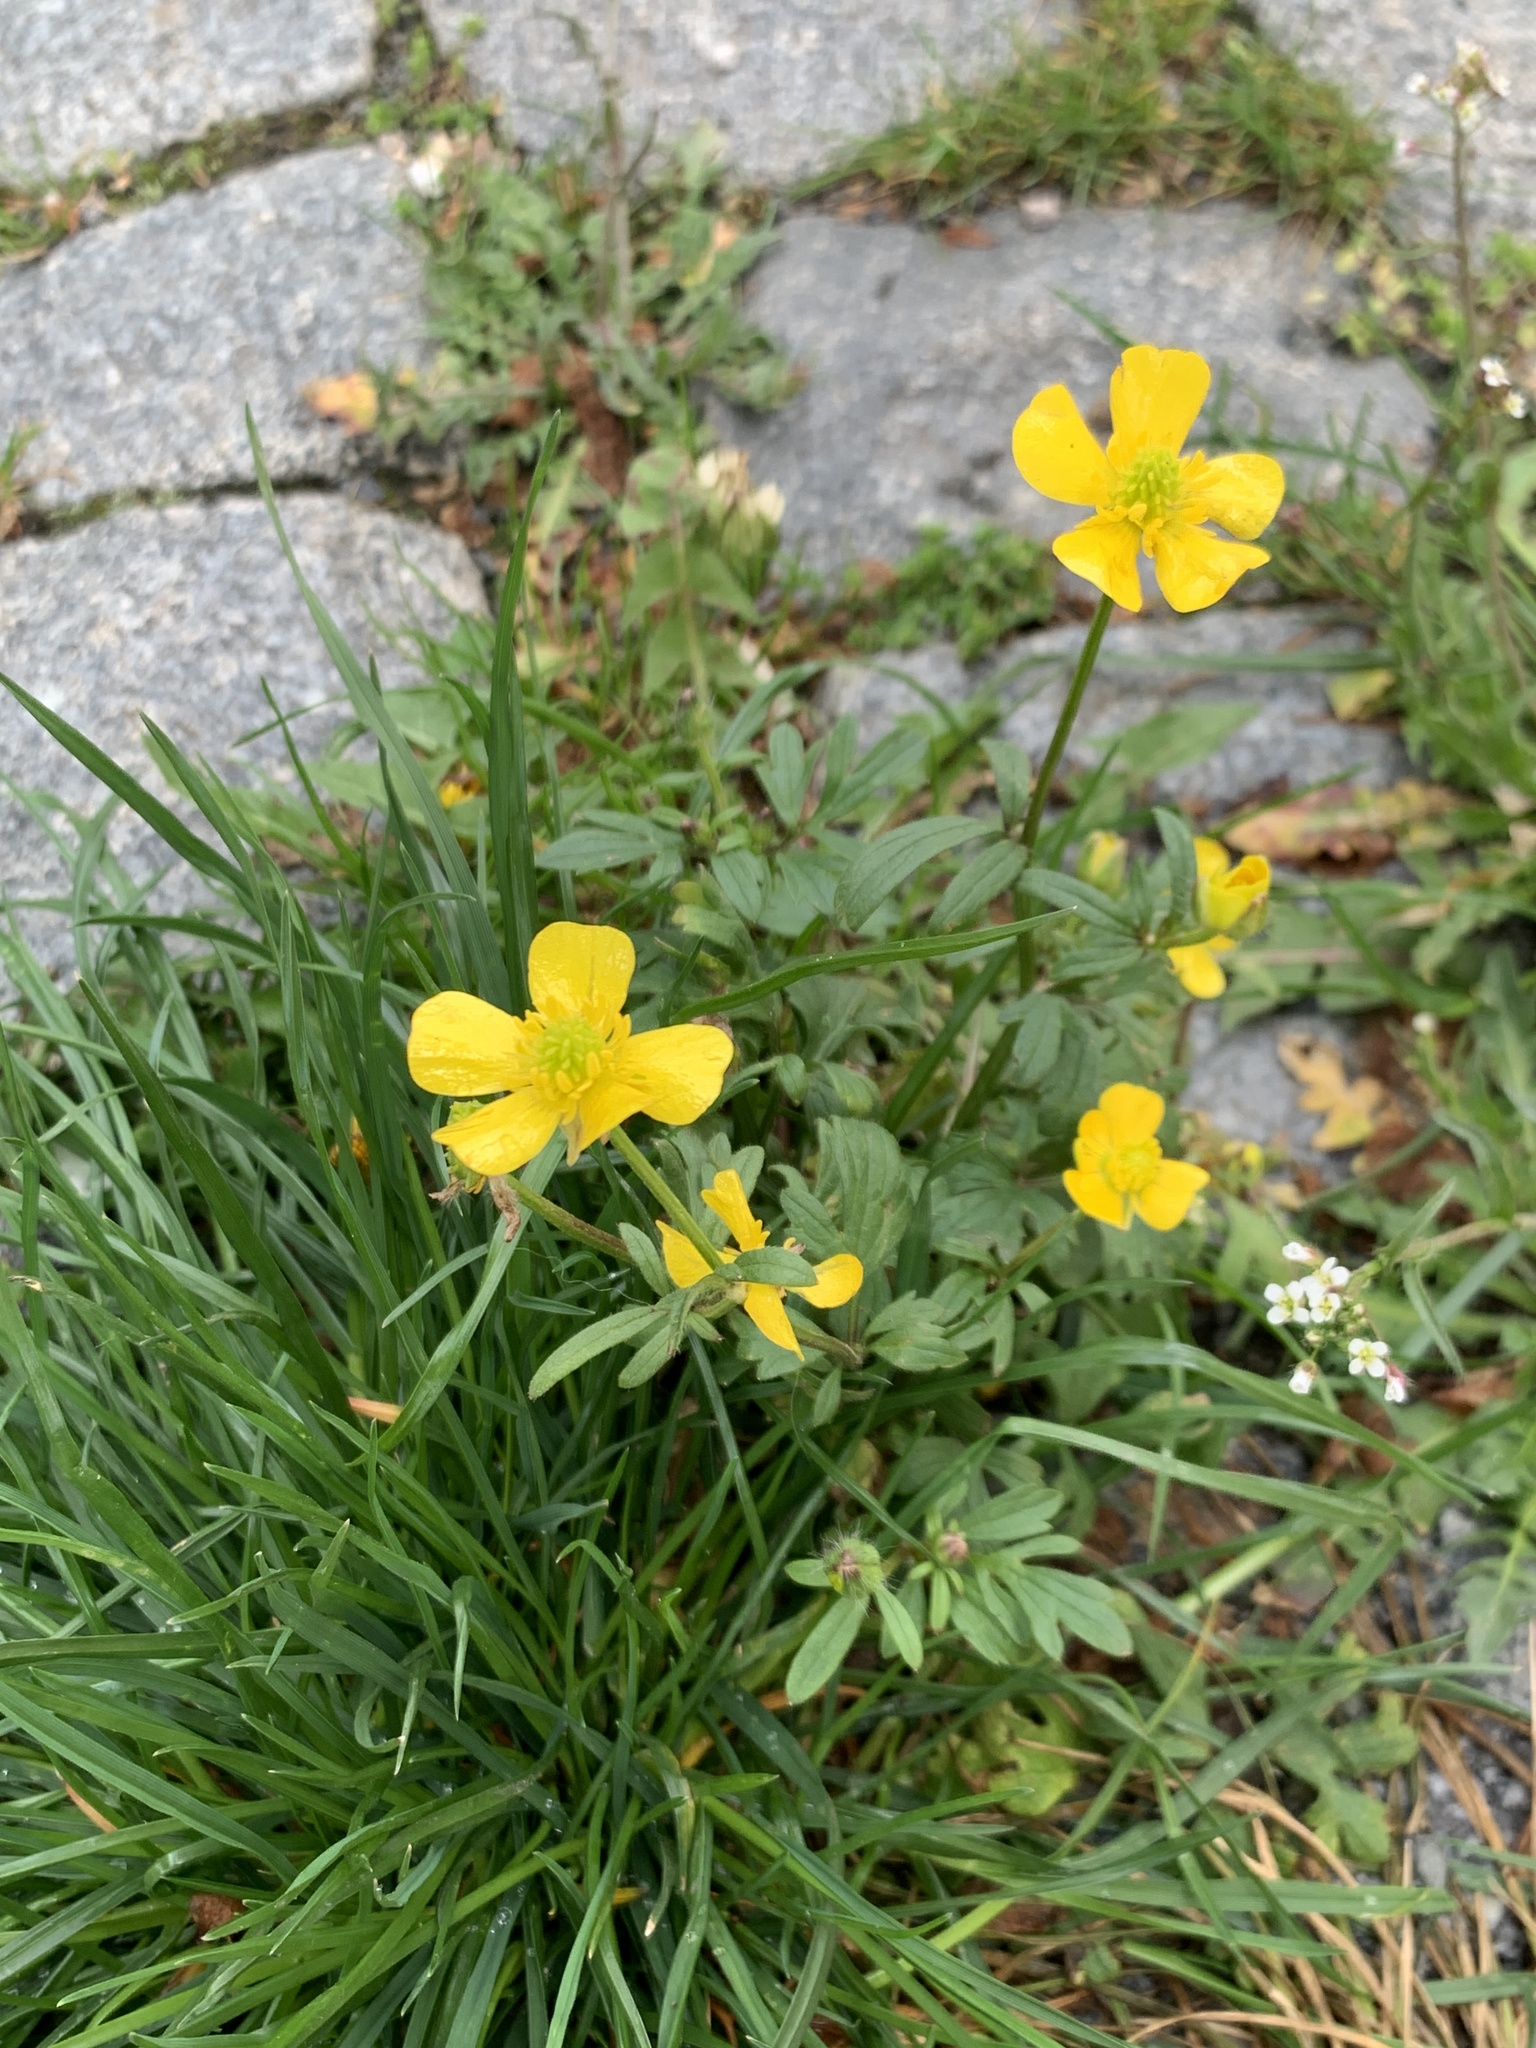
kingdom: Plantae
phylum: Tracheophyta
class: Magnoliopsida
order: Ranunculales
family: Ranunculaceae
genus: Ranunculus
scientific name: Ranunculus repens
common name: Creeping buttercup
